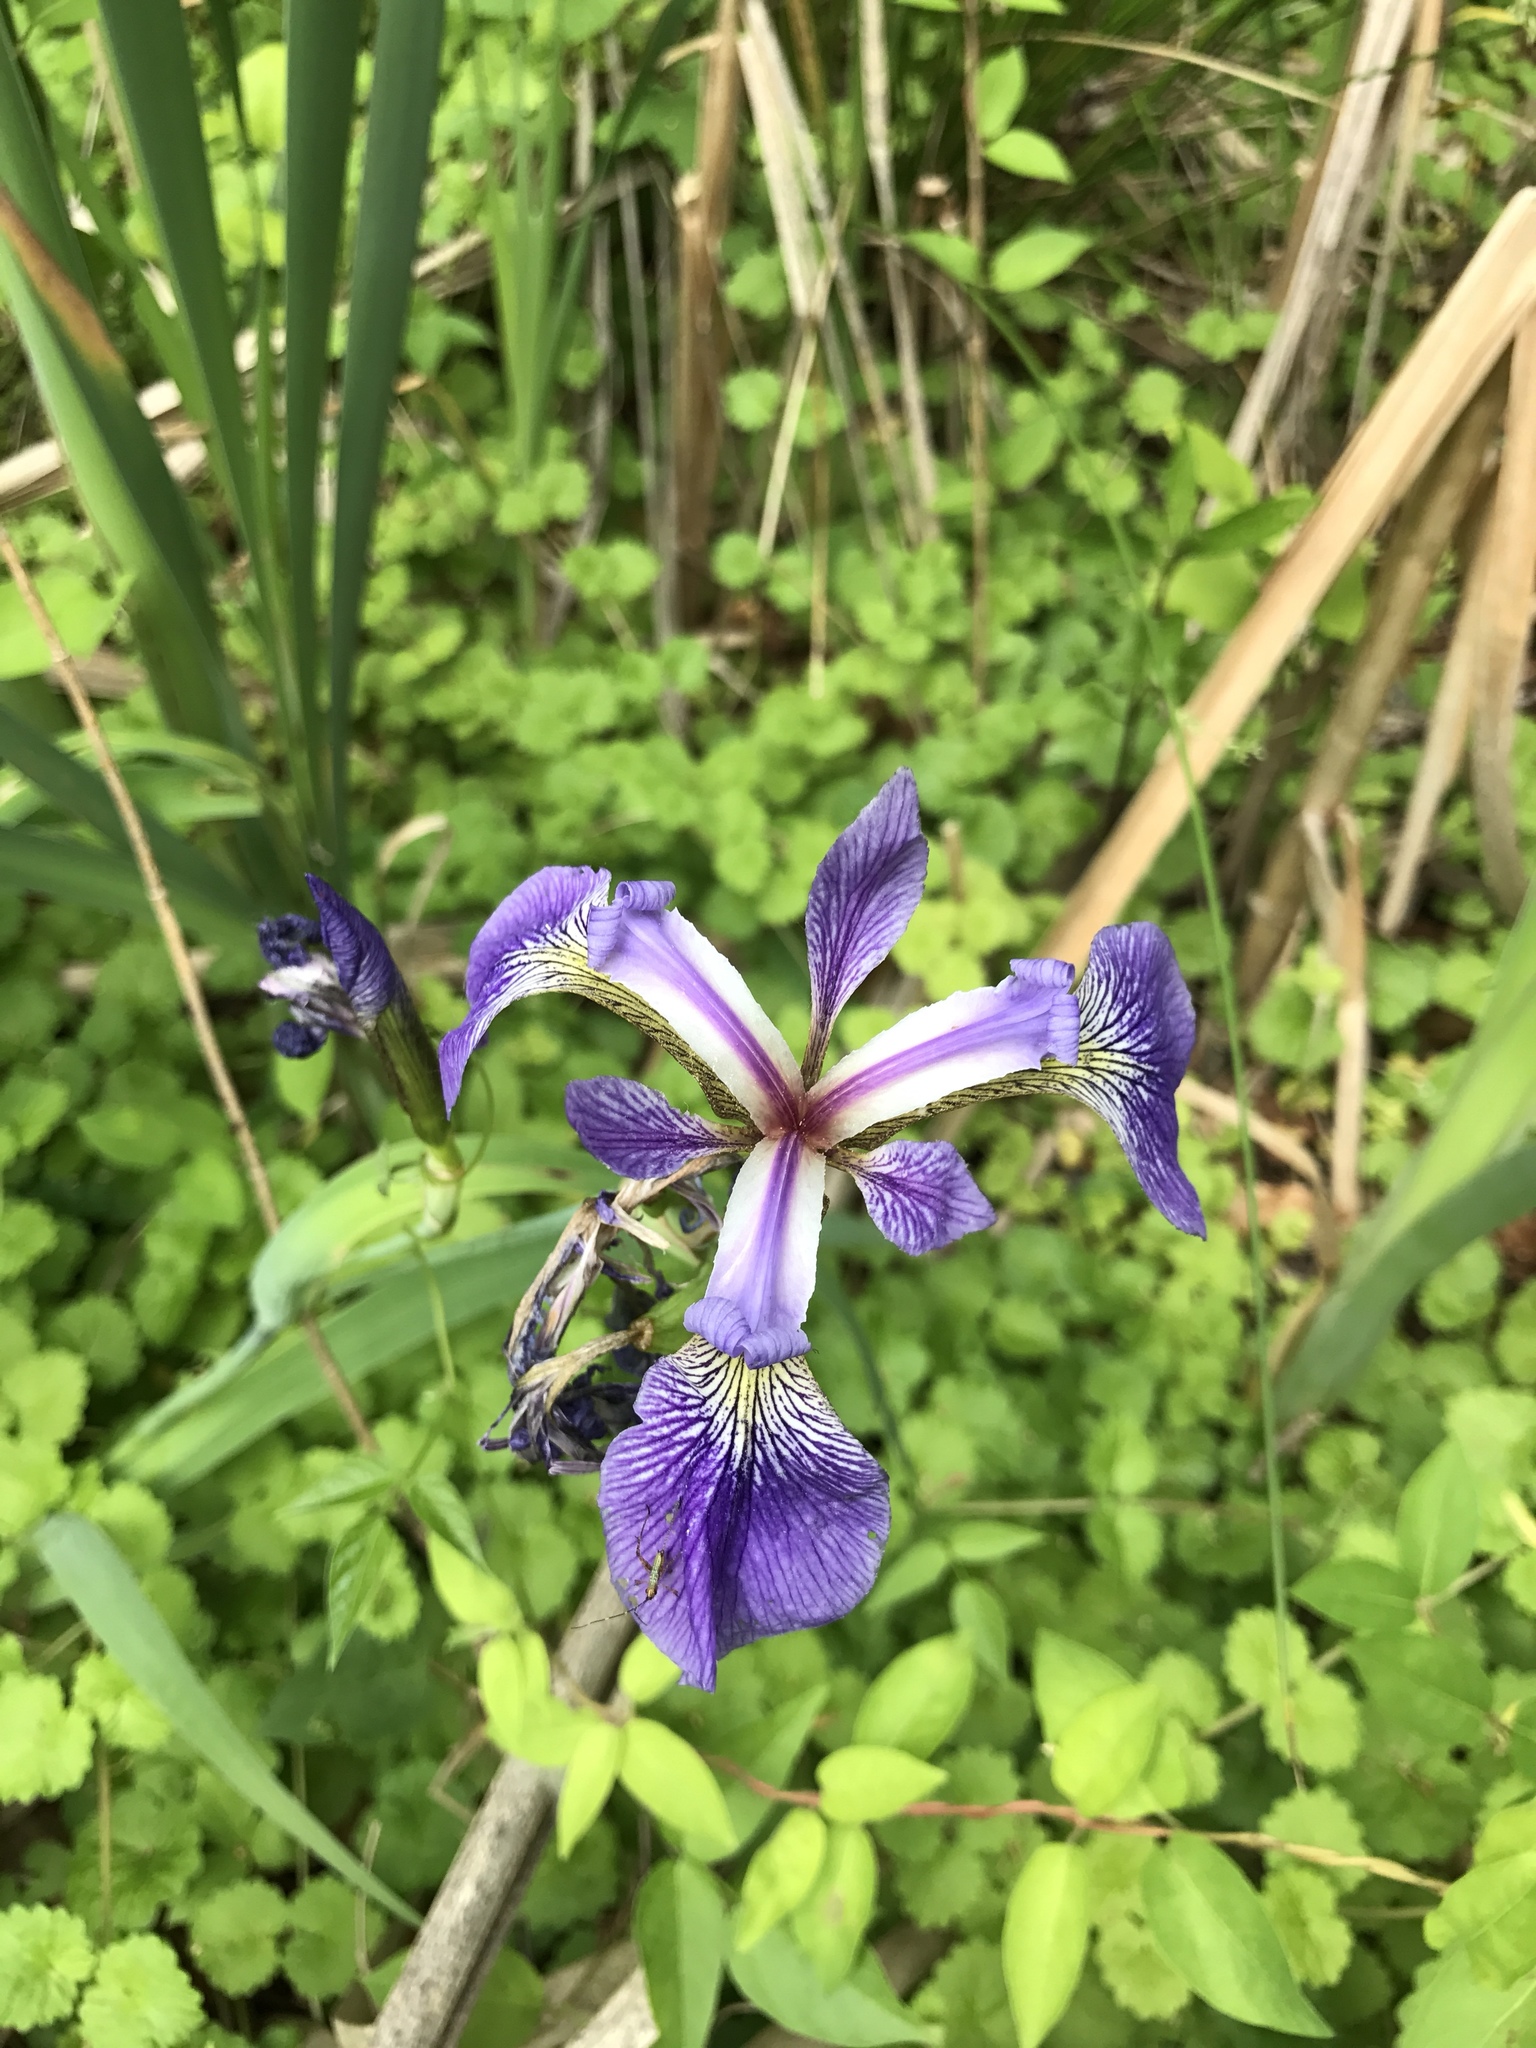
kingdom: Plantae
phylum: Tracheophyta
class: Liliopsida
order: Asparagales
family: Iridaceae
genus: Iris
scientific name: Iris versicolor
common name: Purple iris
